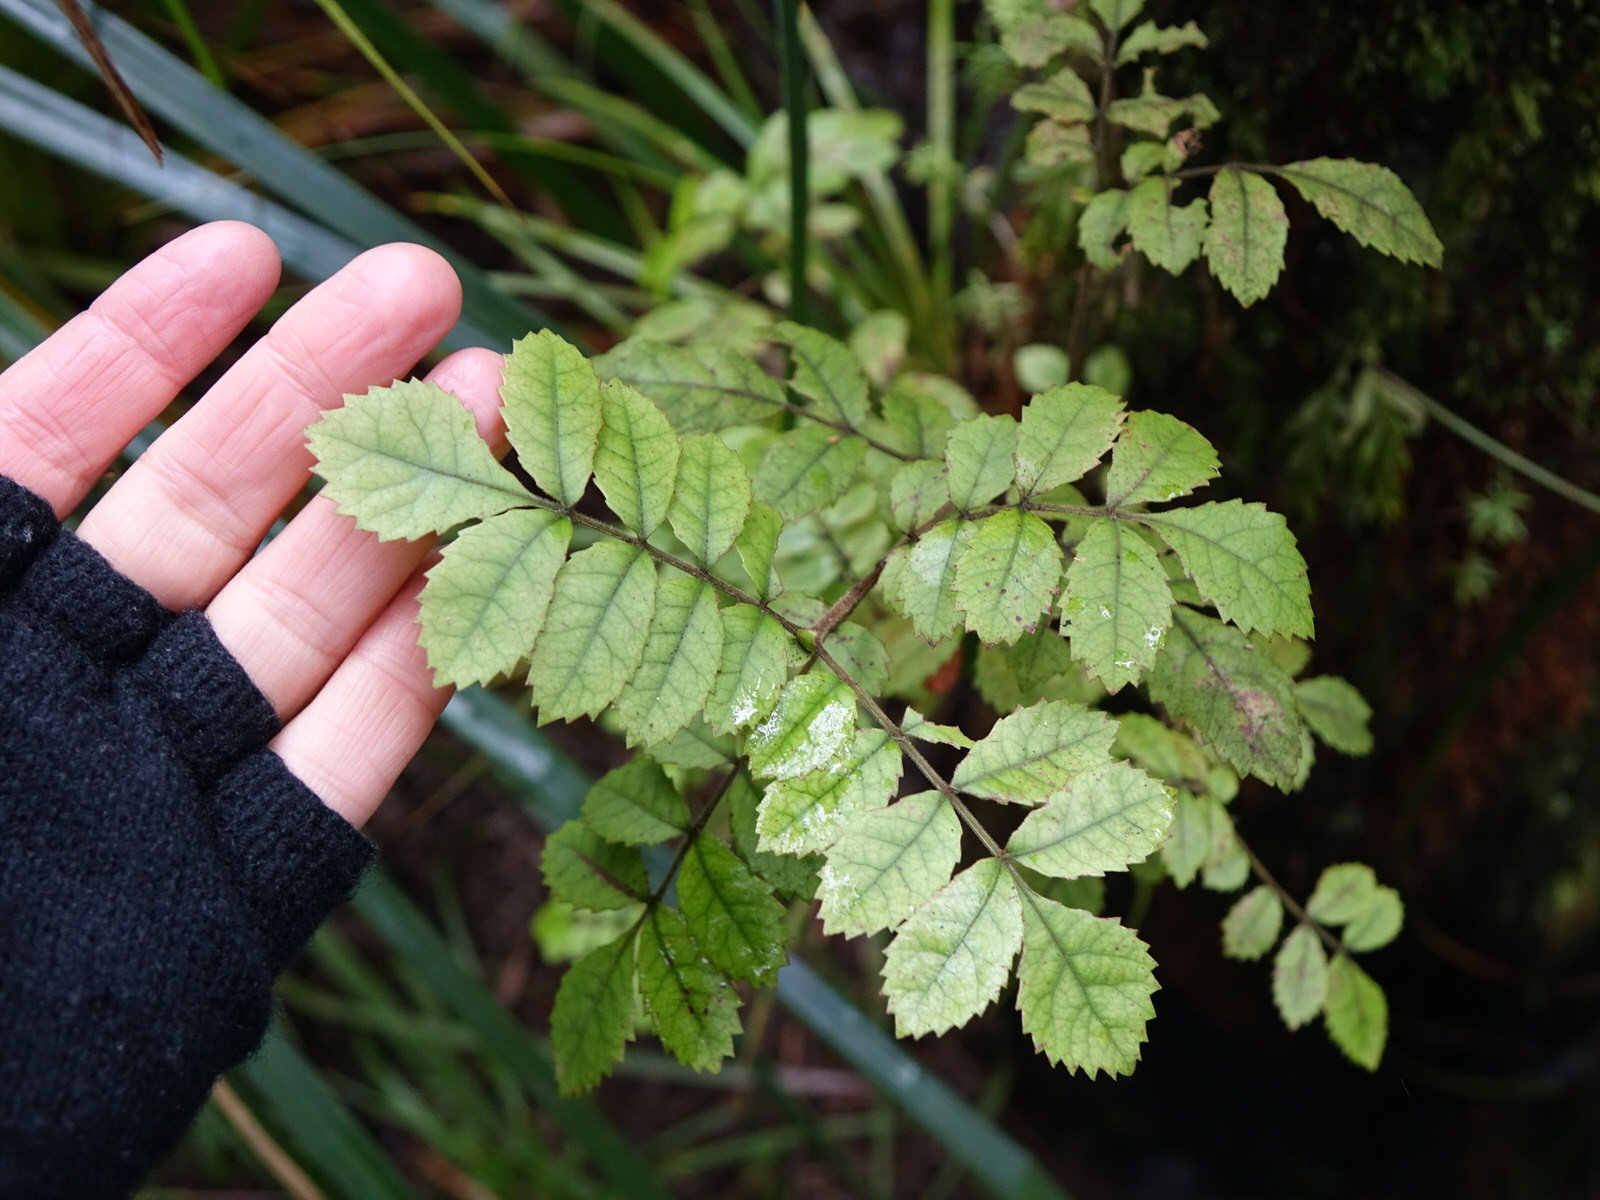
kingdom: Plantae
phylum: Tracheophyta
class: Magnoliopsida
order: Oxalidales
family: Cunoniaceae
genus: Pterophylla
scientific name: Pterophylla sylvicola
